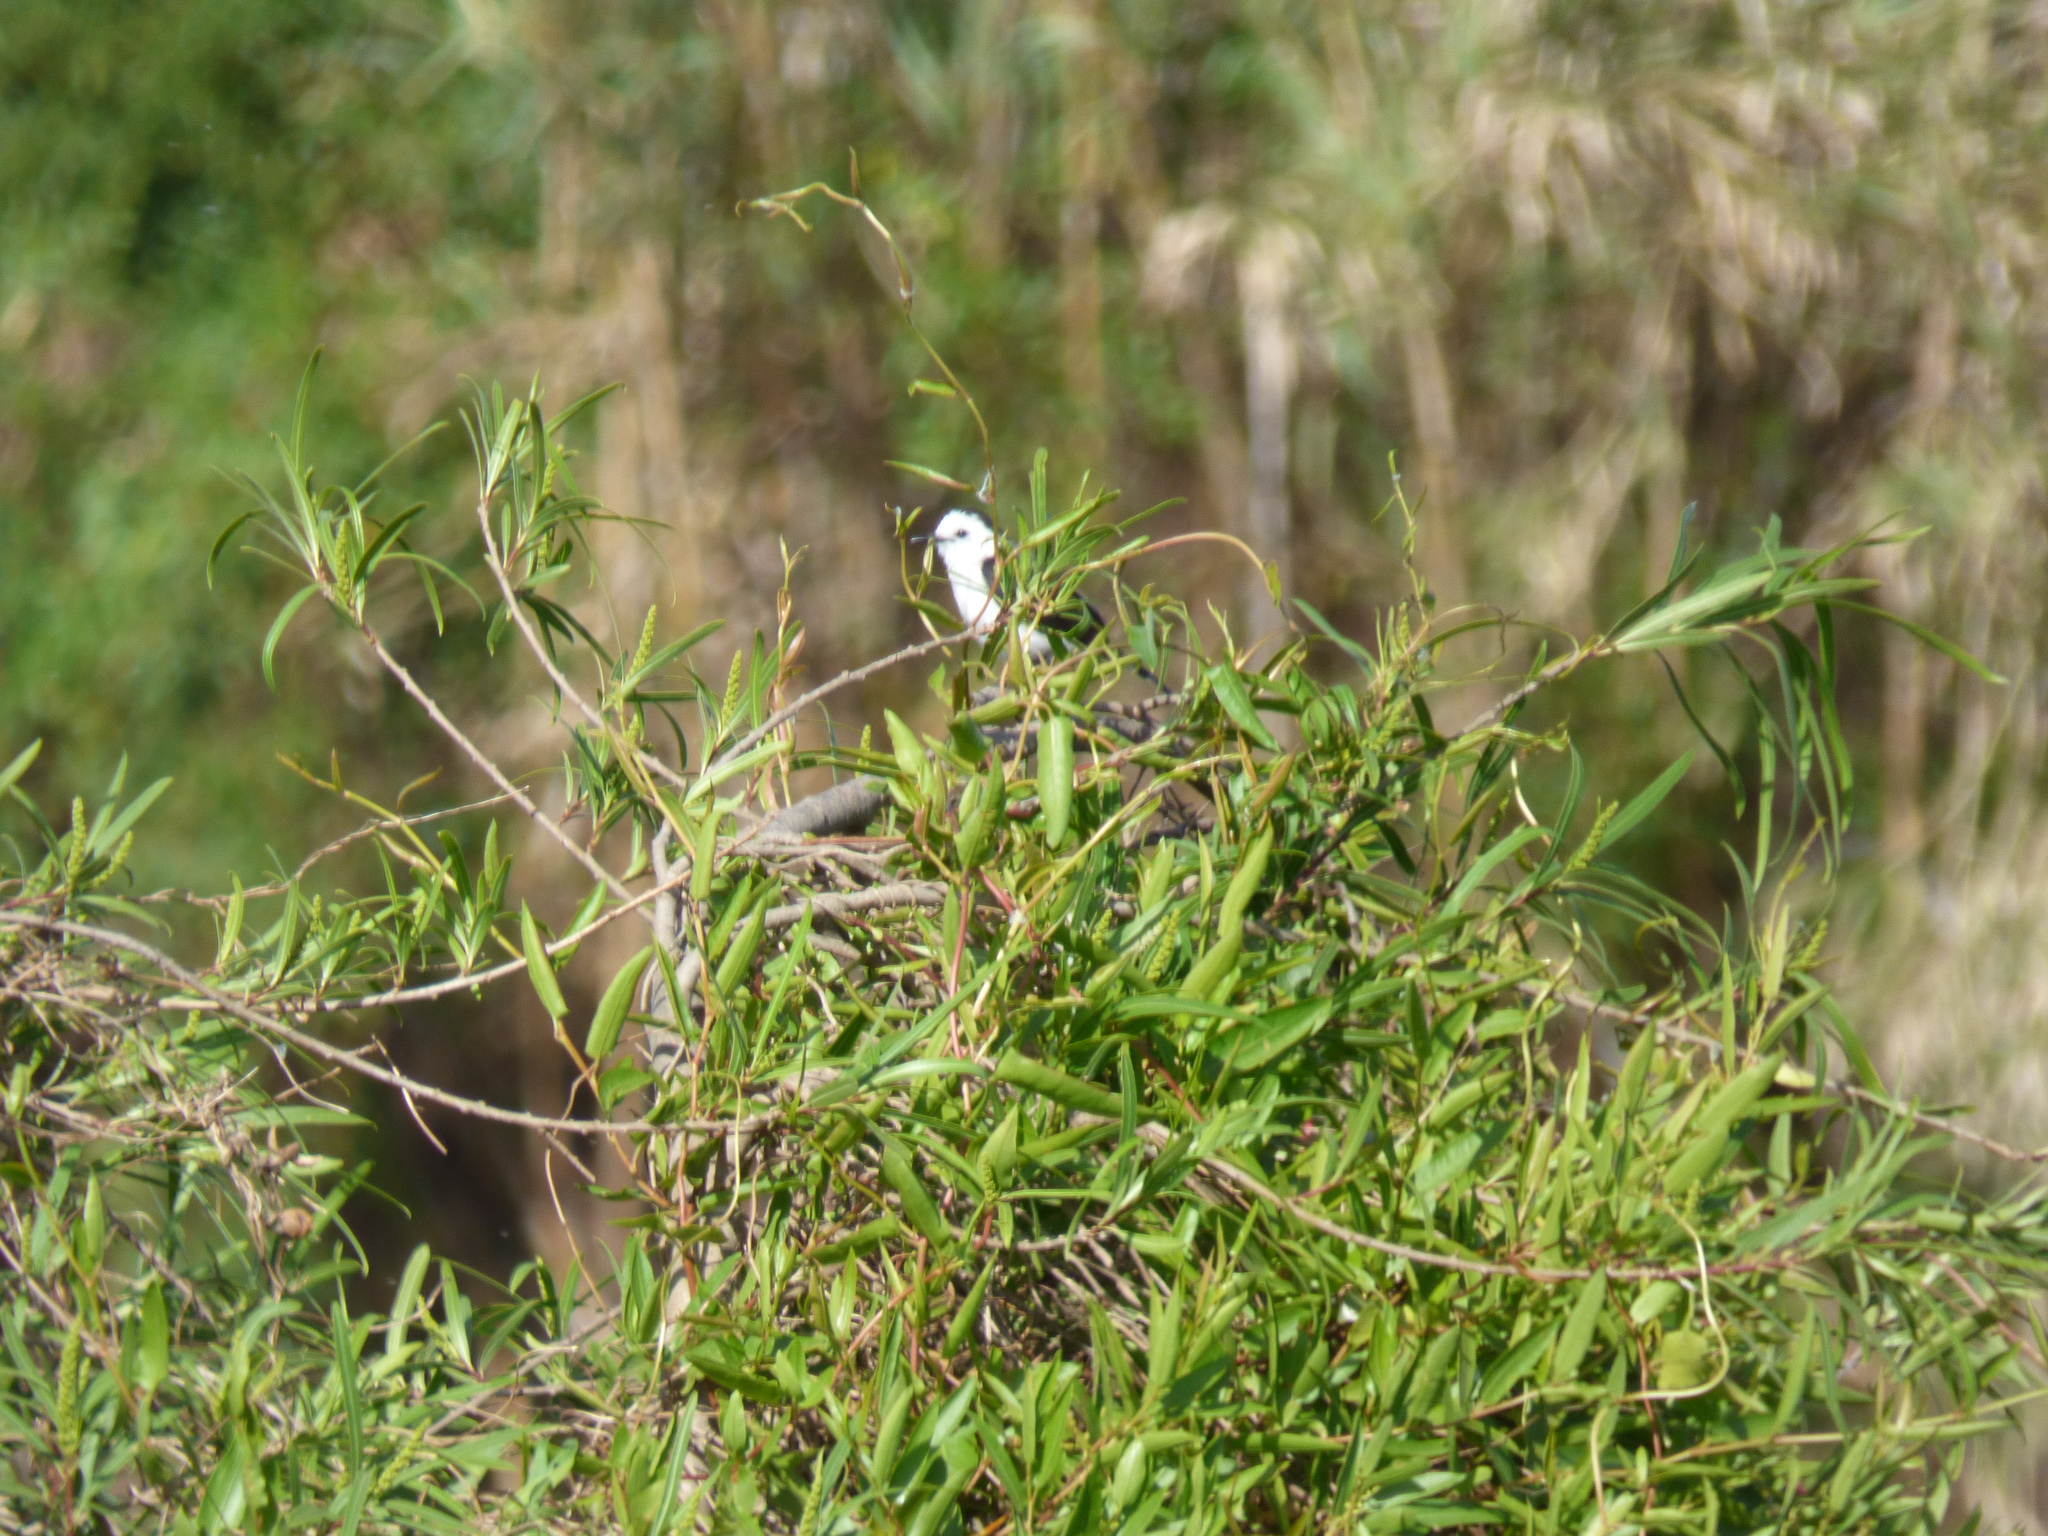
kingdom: Animalia
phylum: Chordata
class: Aves
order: Passeriformes
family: Tyrannidae
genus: Fluvicola
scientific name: Fluvicola pica
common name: Pied water-tyrant
